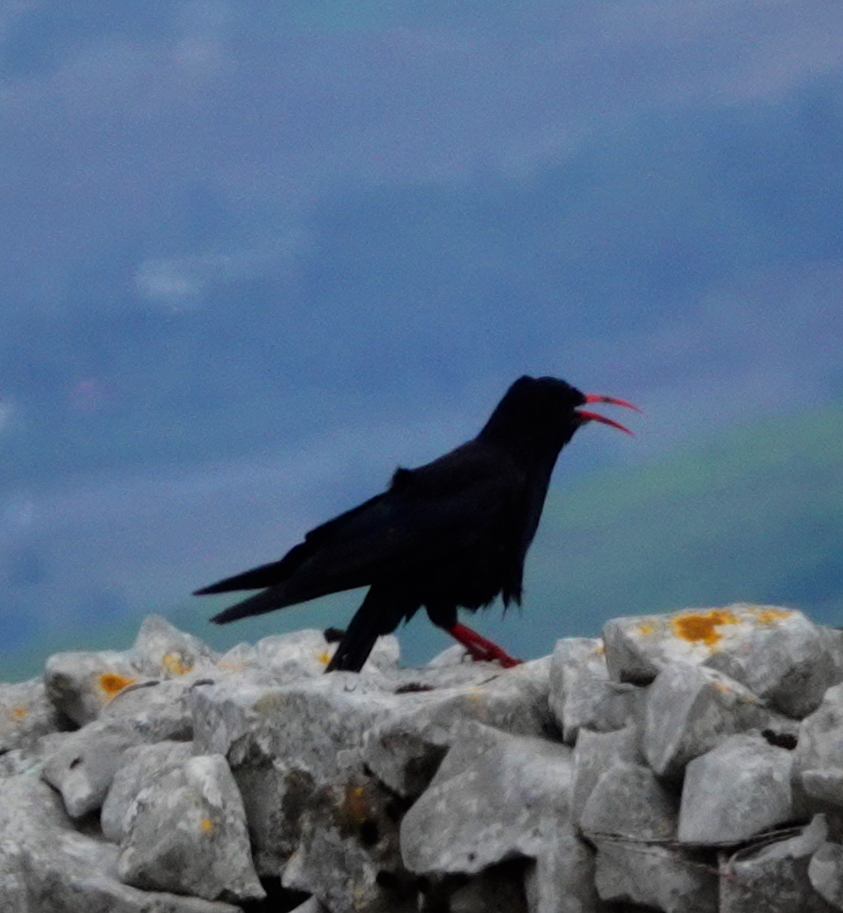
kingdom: Animalia
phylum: Chordata
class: Aves
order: Passeriformes
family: Corvidae
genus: Pyrrhocorax
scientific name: Pyrrhocorax pyrrhocorax
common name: Red-billed chough
